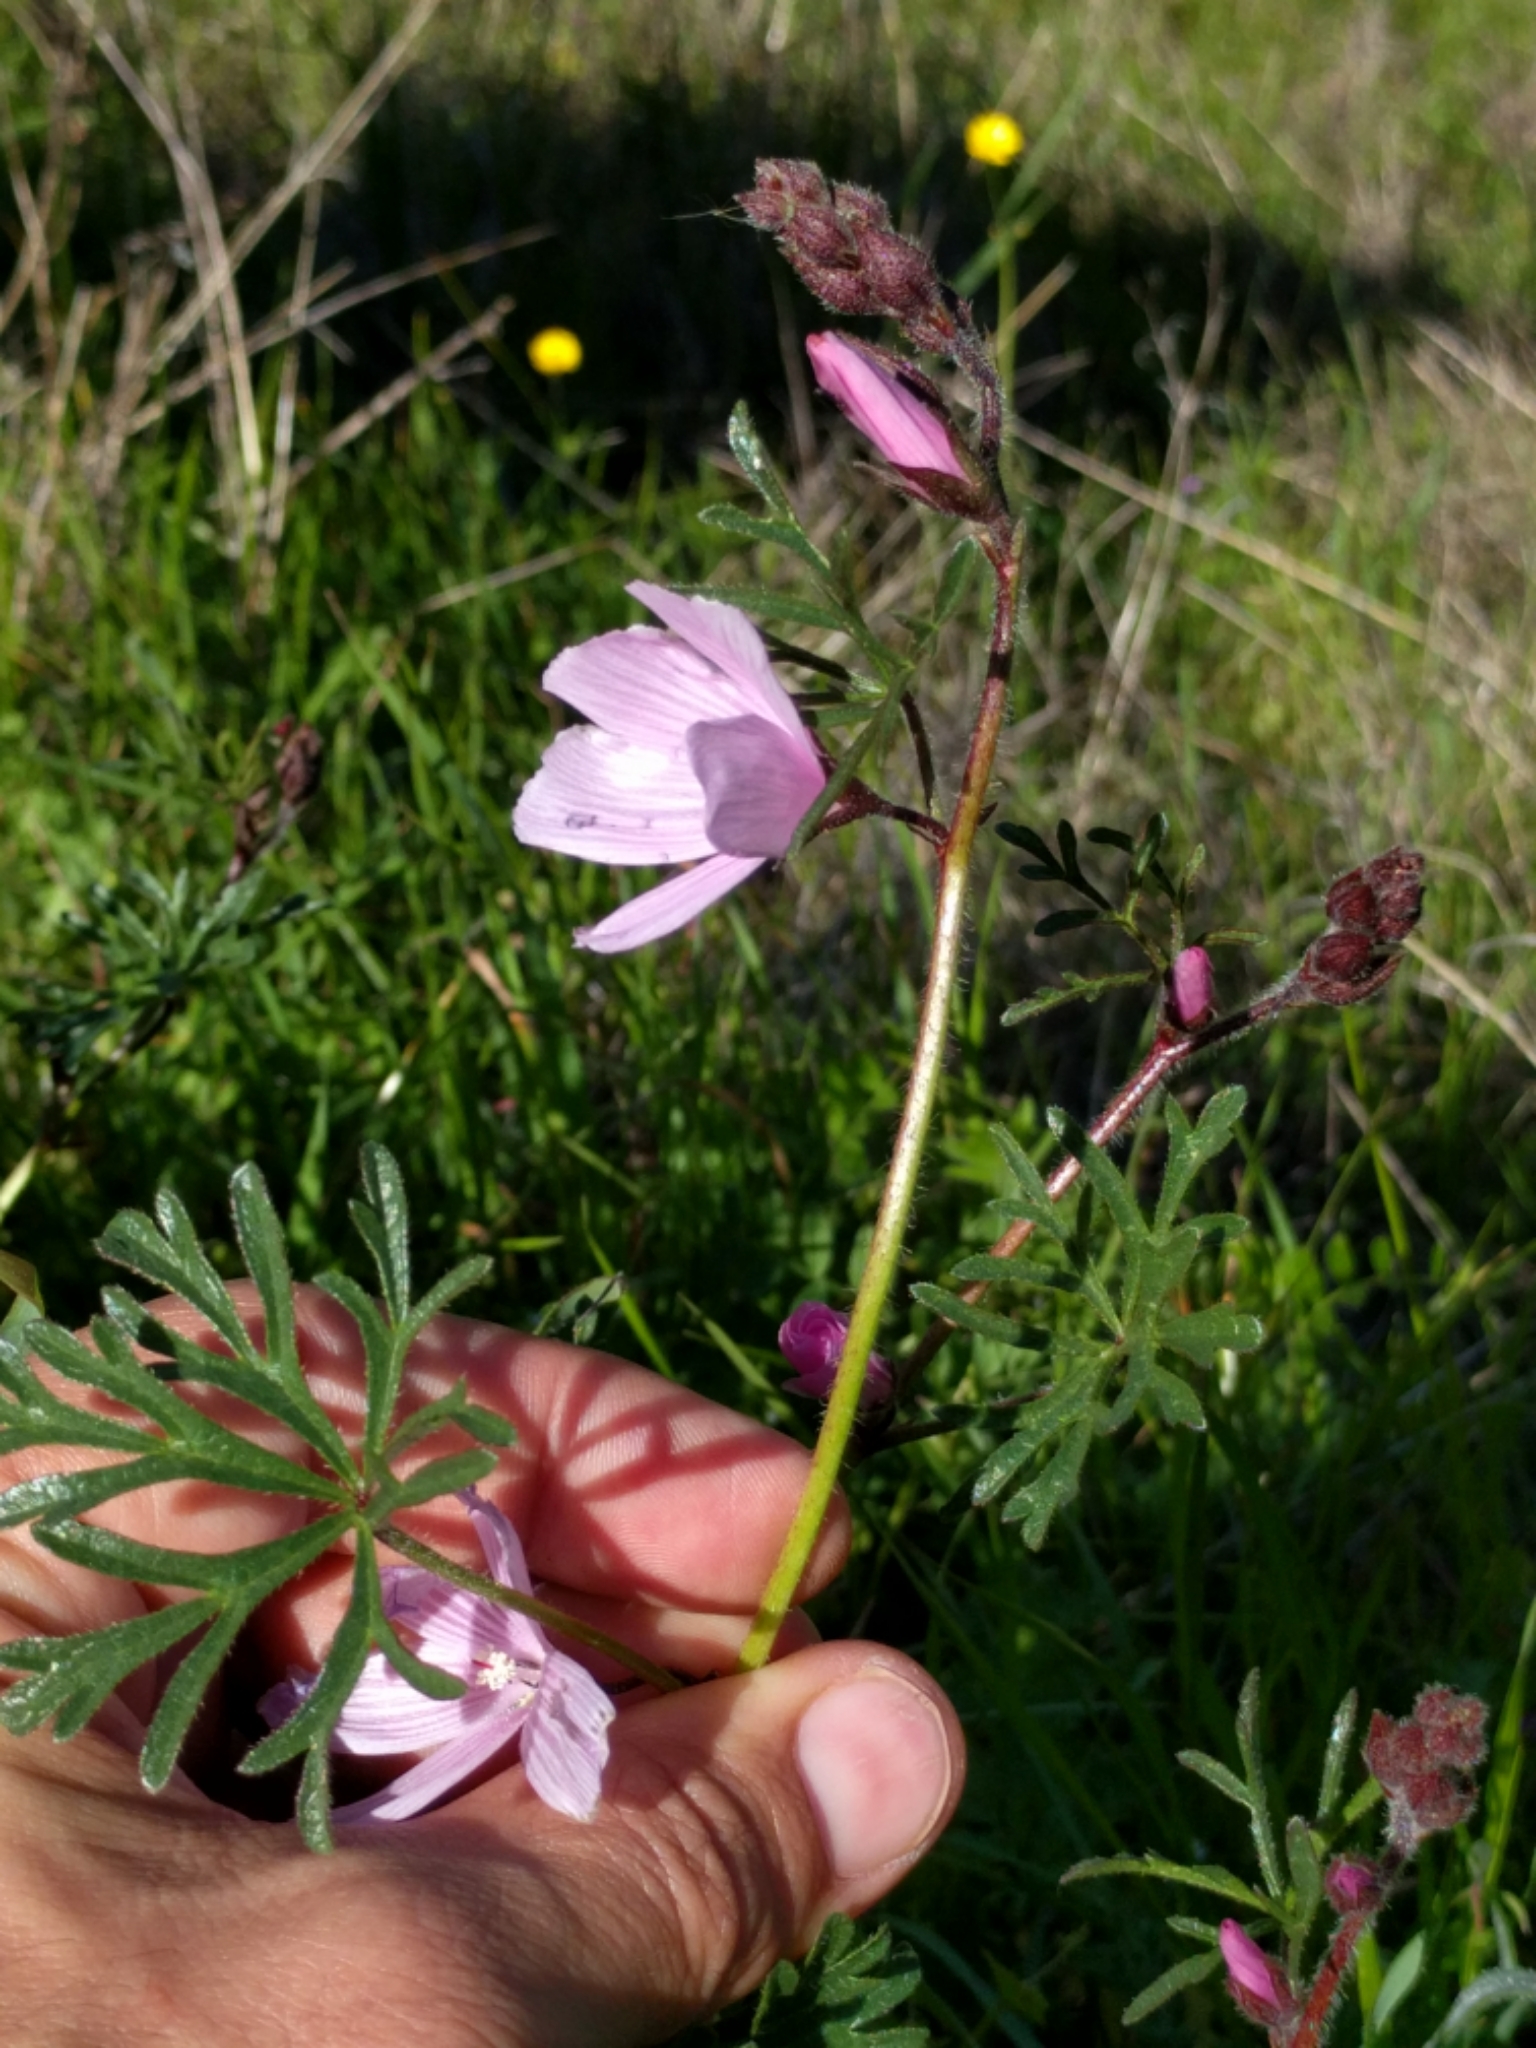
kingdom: Plantae
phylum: Tracheophyta
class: Magnoliopsida
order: Malvales
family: Malvaceae
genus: Sidalcea
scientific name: Sidalcea malviflora
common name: Greek mallow
